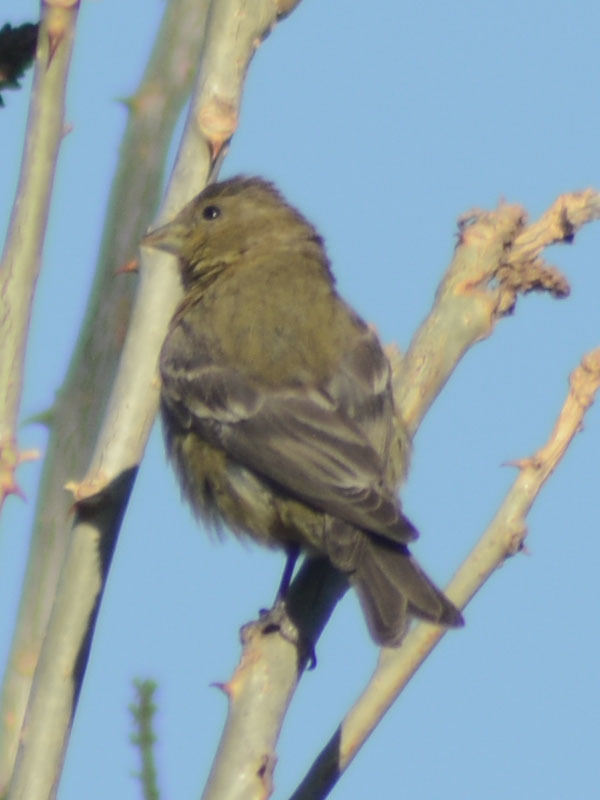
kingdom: Animalia
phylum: Chordata
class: Aves
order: Passeriformes
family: Fringillidae
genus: Spinus
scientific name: Spinus psaltria
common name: Lesser goldfinch
